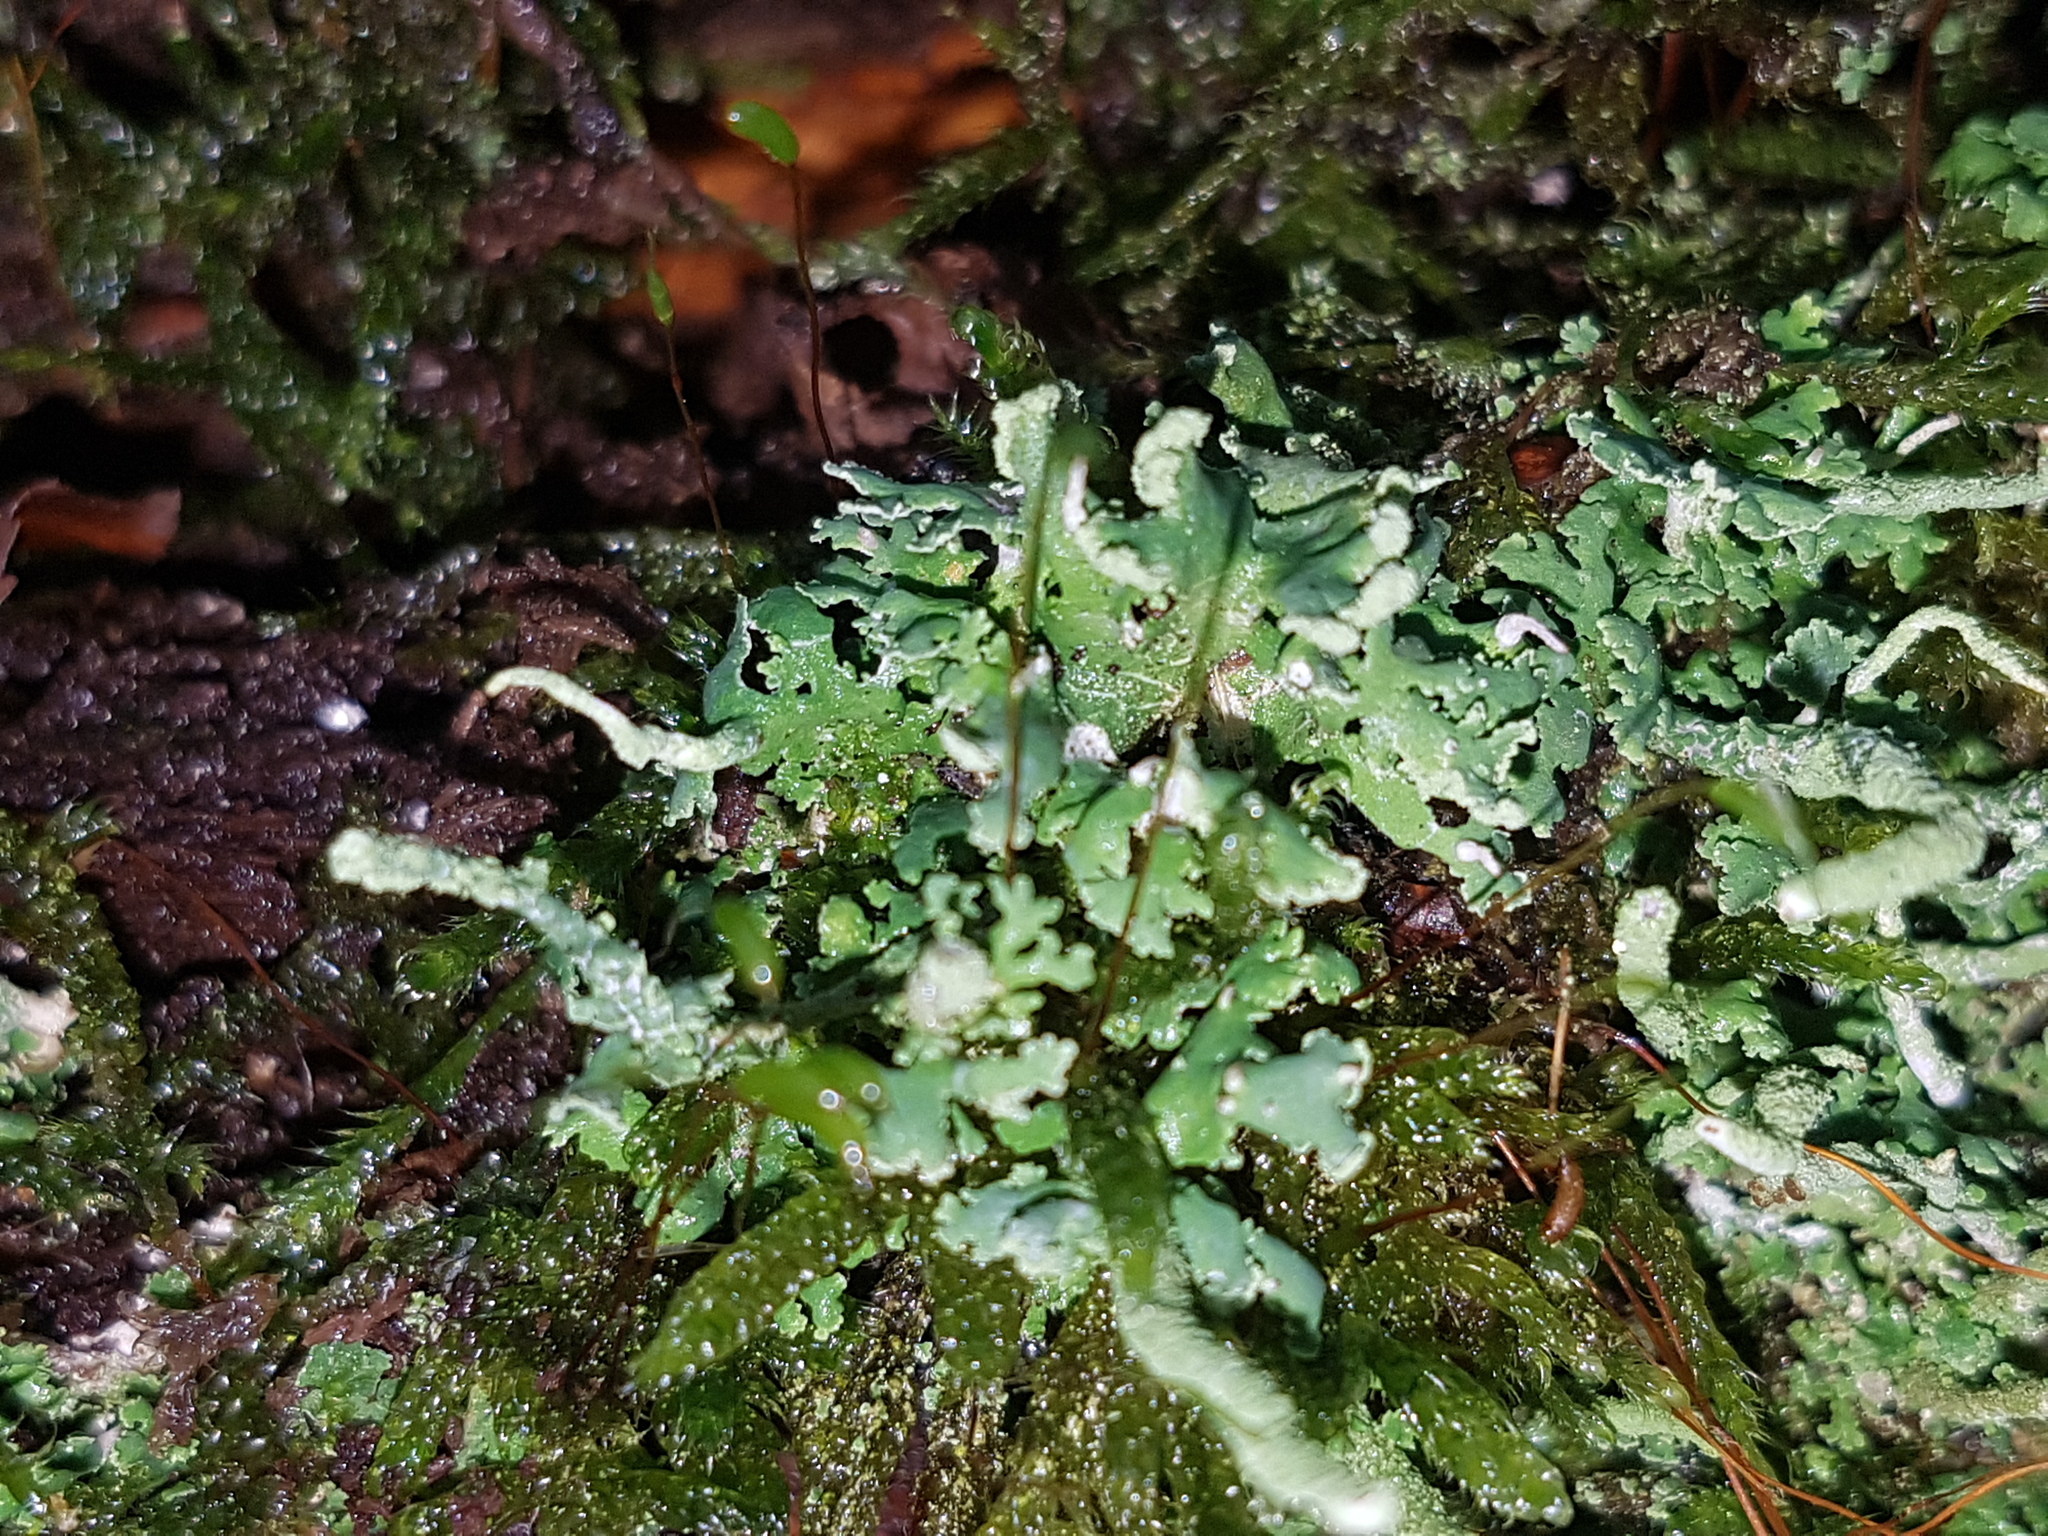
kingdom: Fungi
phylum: Ascomycota
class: Lecanoromycetes
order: Lecanorales
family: Cladoniaceae
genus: Cladonia
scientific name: Cladonia coniocraea
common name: Common powderhorn
